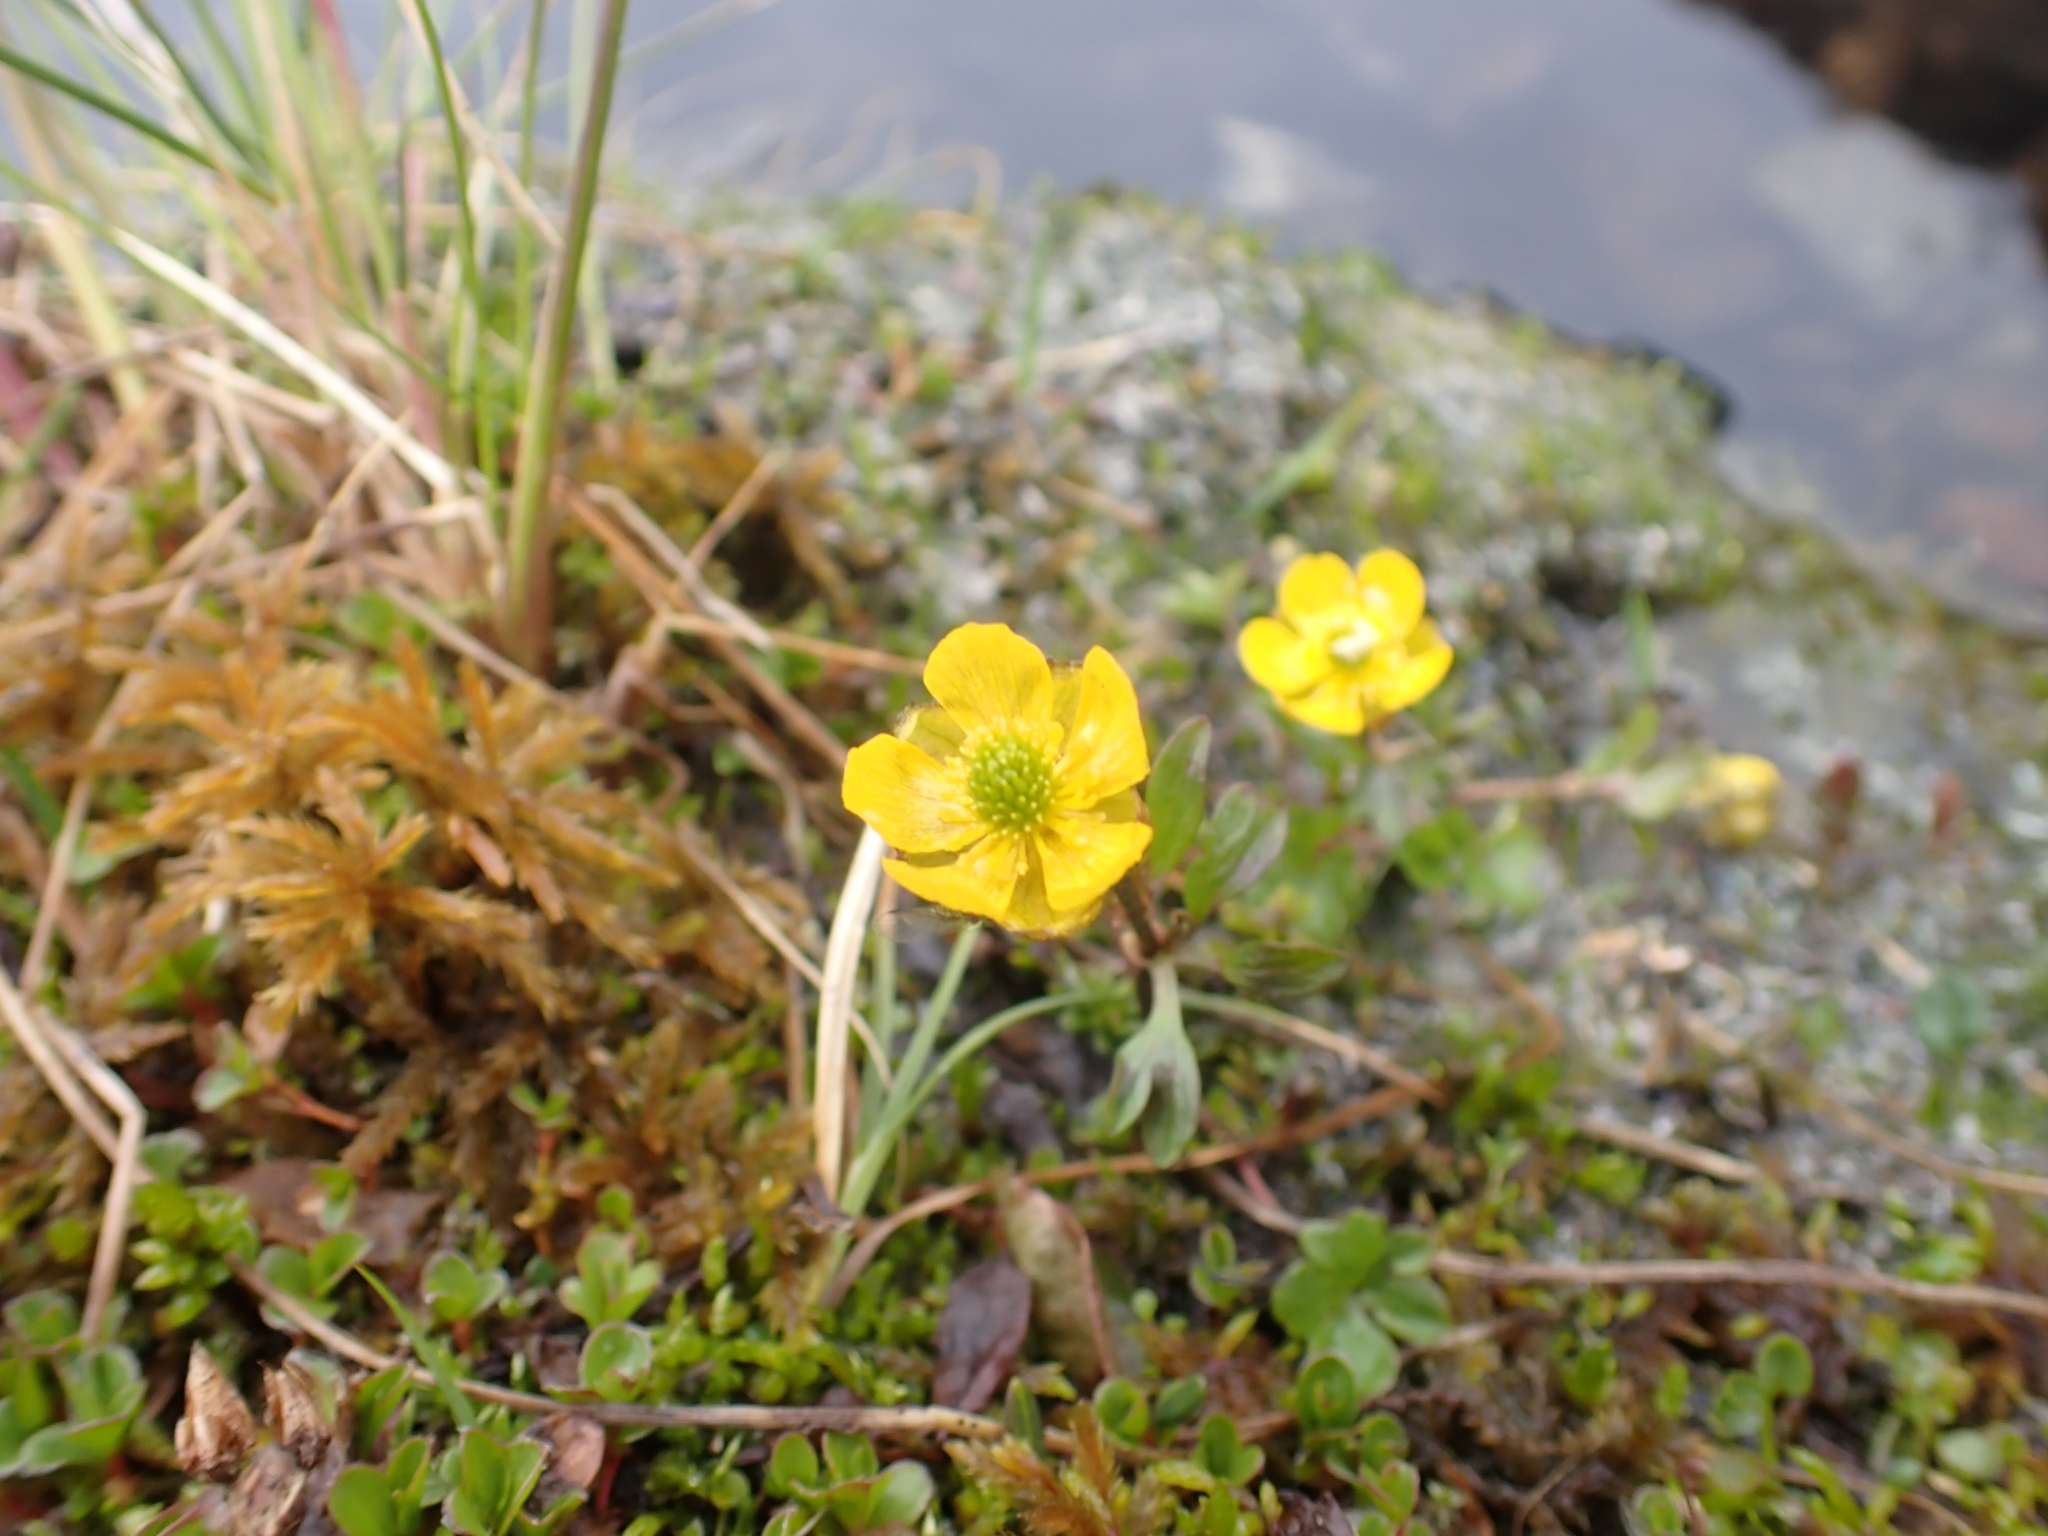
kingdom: Plantae
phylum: Tracheophyta
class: Magnoliopsida
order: Ranunculales
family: Ranunculaceae
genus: Ranunculus
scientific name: Ranunculus eschscholtzii
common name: Eschscholtz's buttercup
